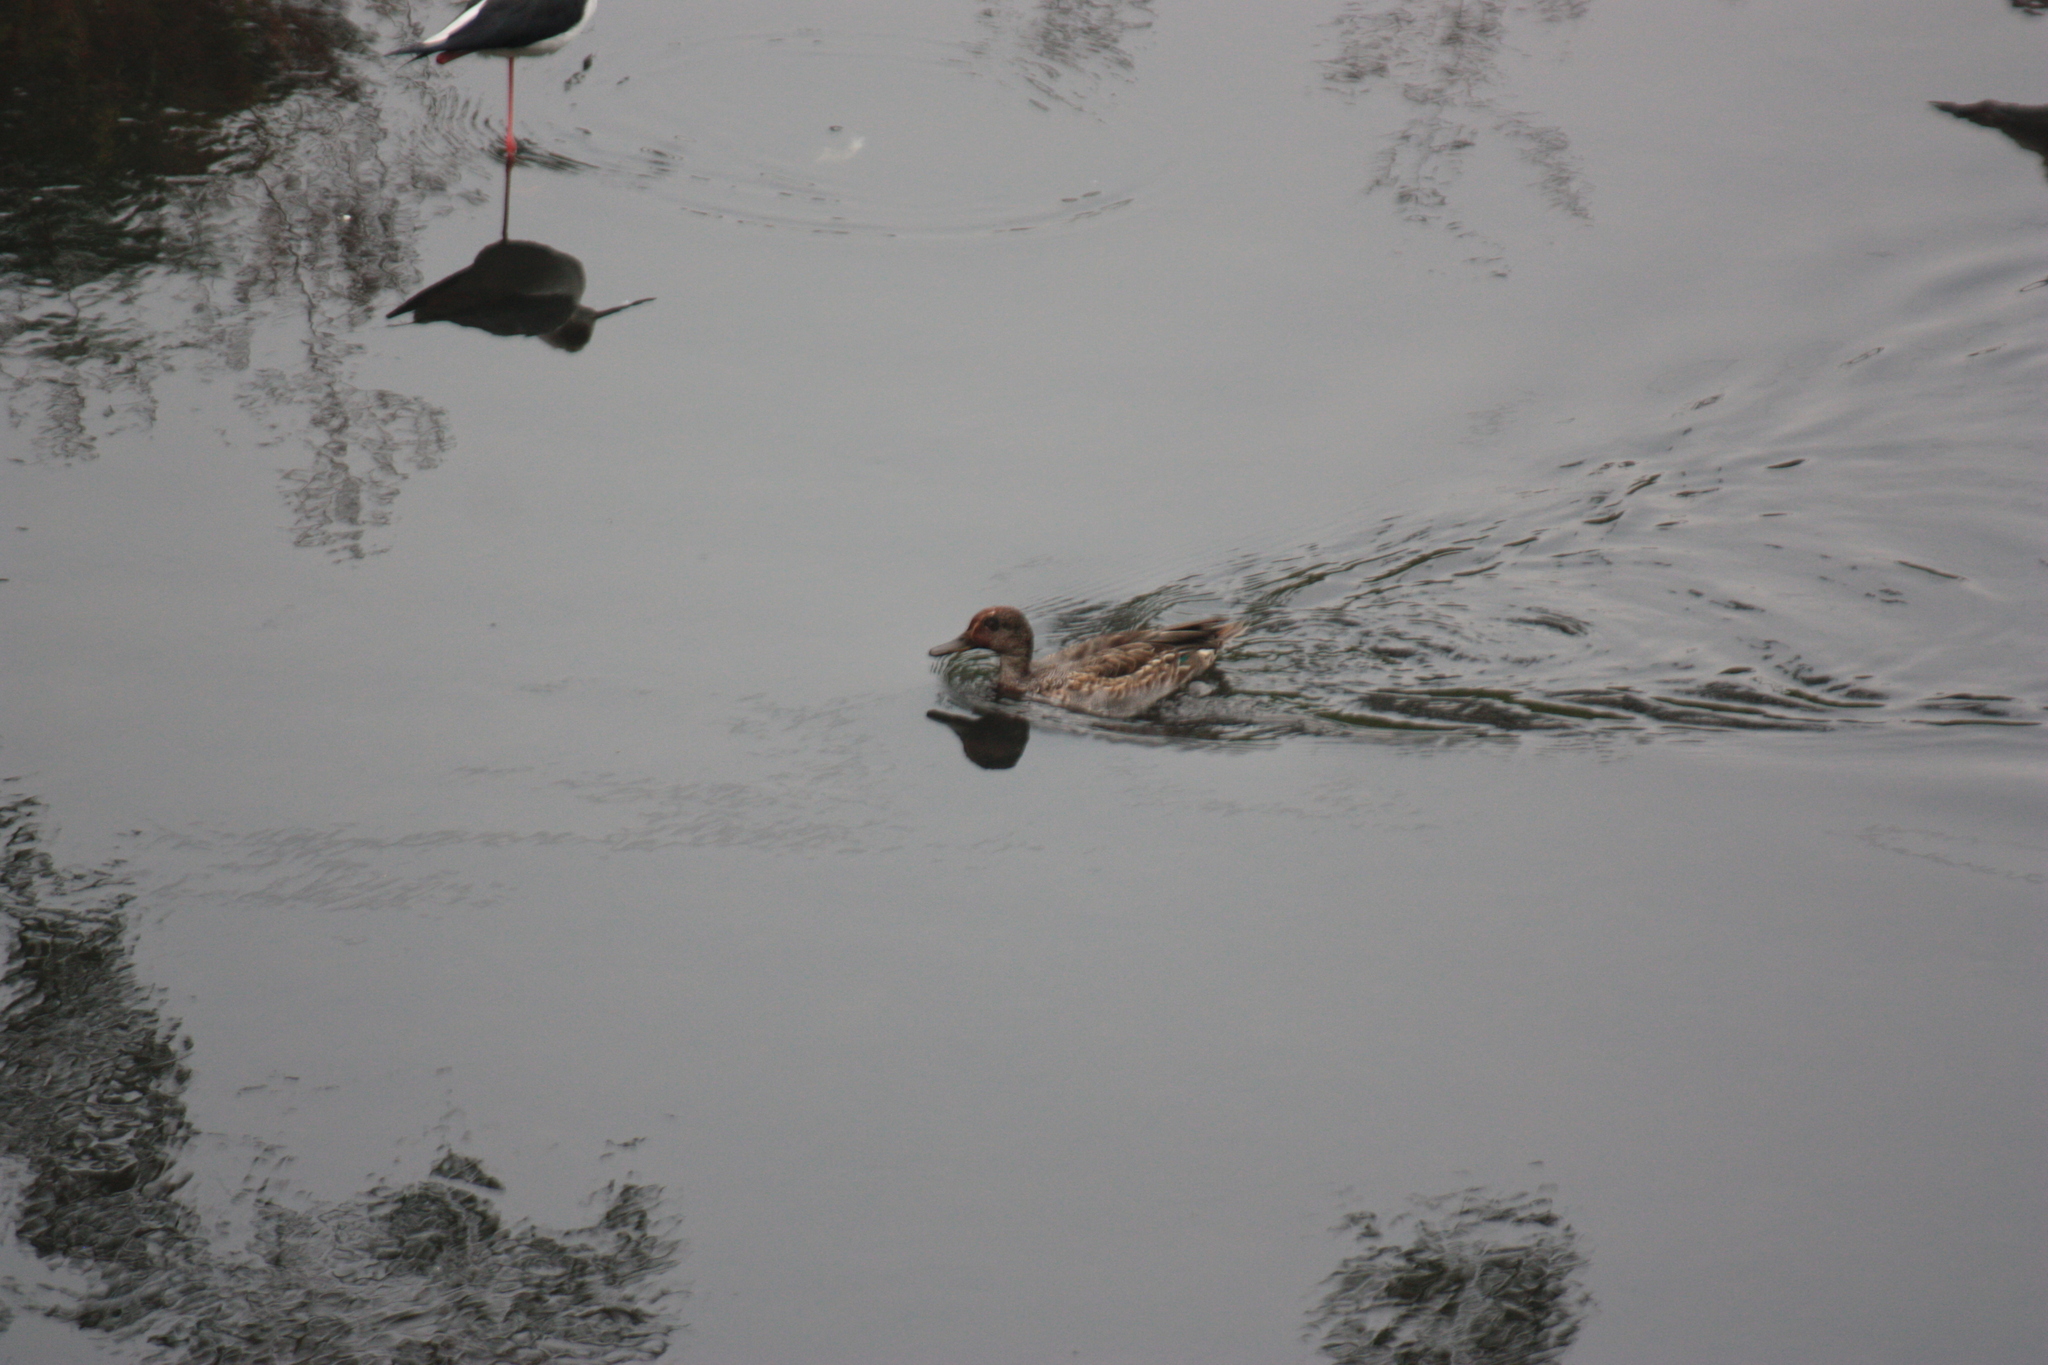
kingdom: Animalia
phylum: Chordata
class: Aves
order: Anseriformes
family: Anatidae
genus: Anas
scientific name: Anas crecca
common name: Eurasian teal
